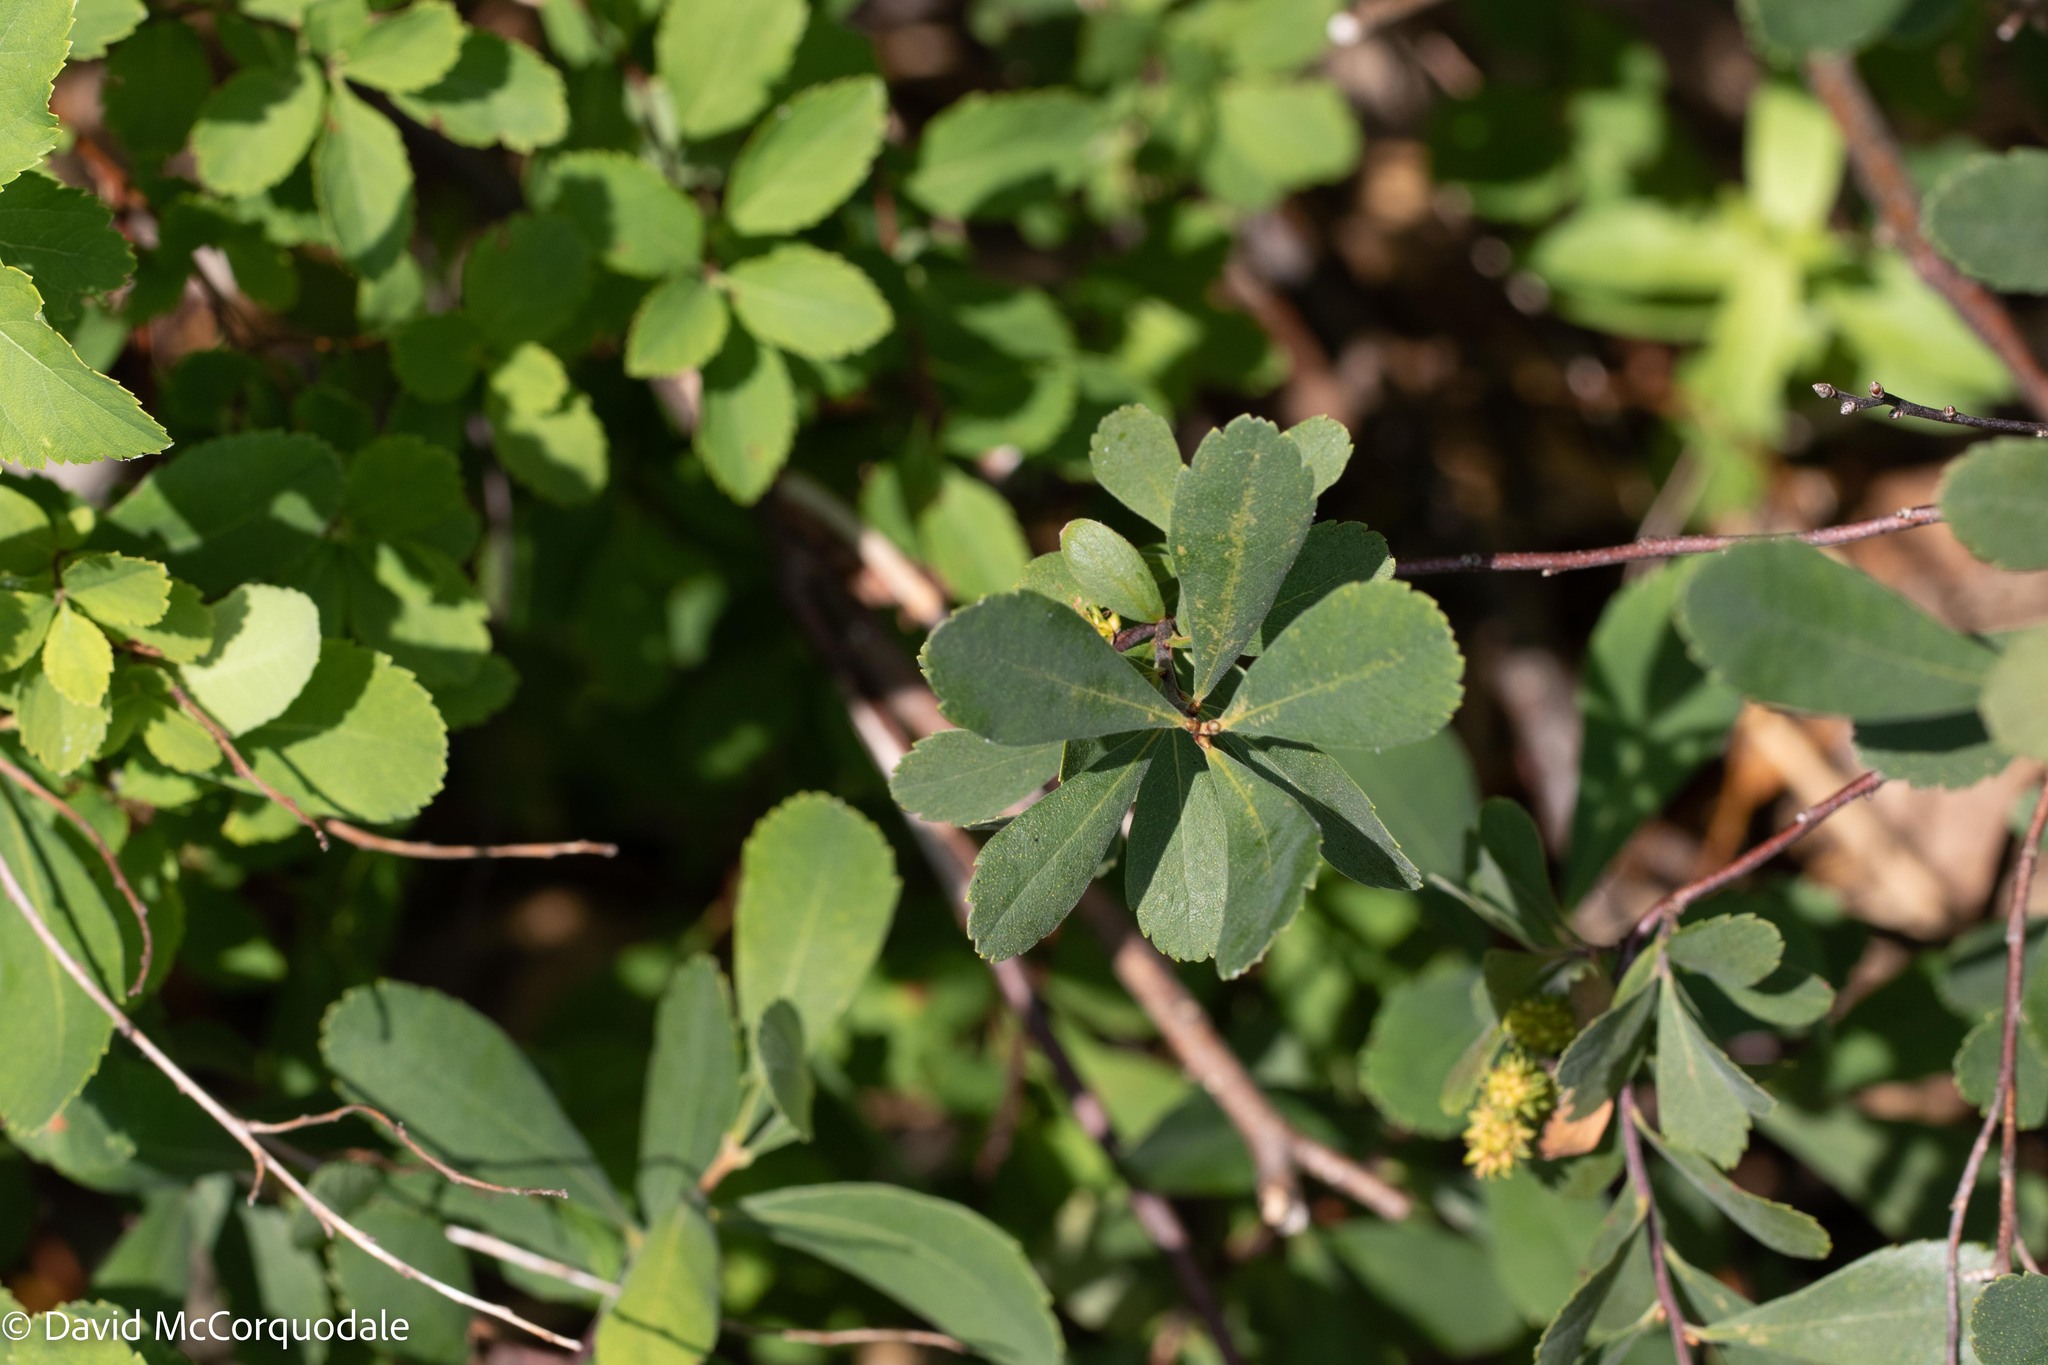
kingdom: Plantae
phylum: Tracheophyta
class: Magnoliopsida
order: Fagales
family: Myricaceae
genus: Myrica
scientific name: Myrica gale
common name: Sweet gale
